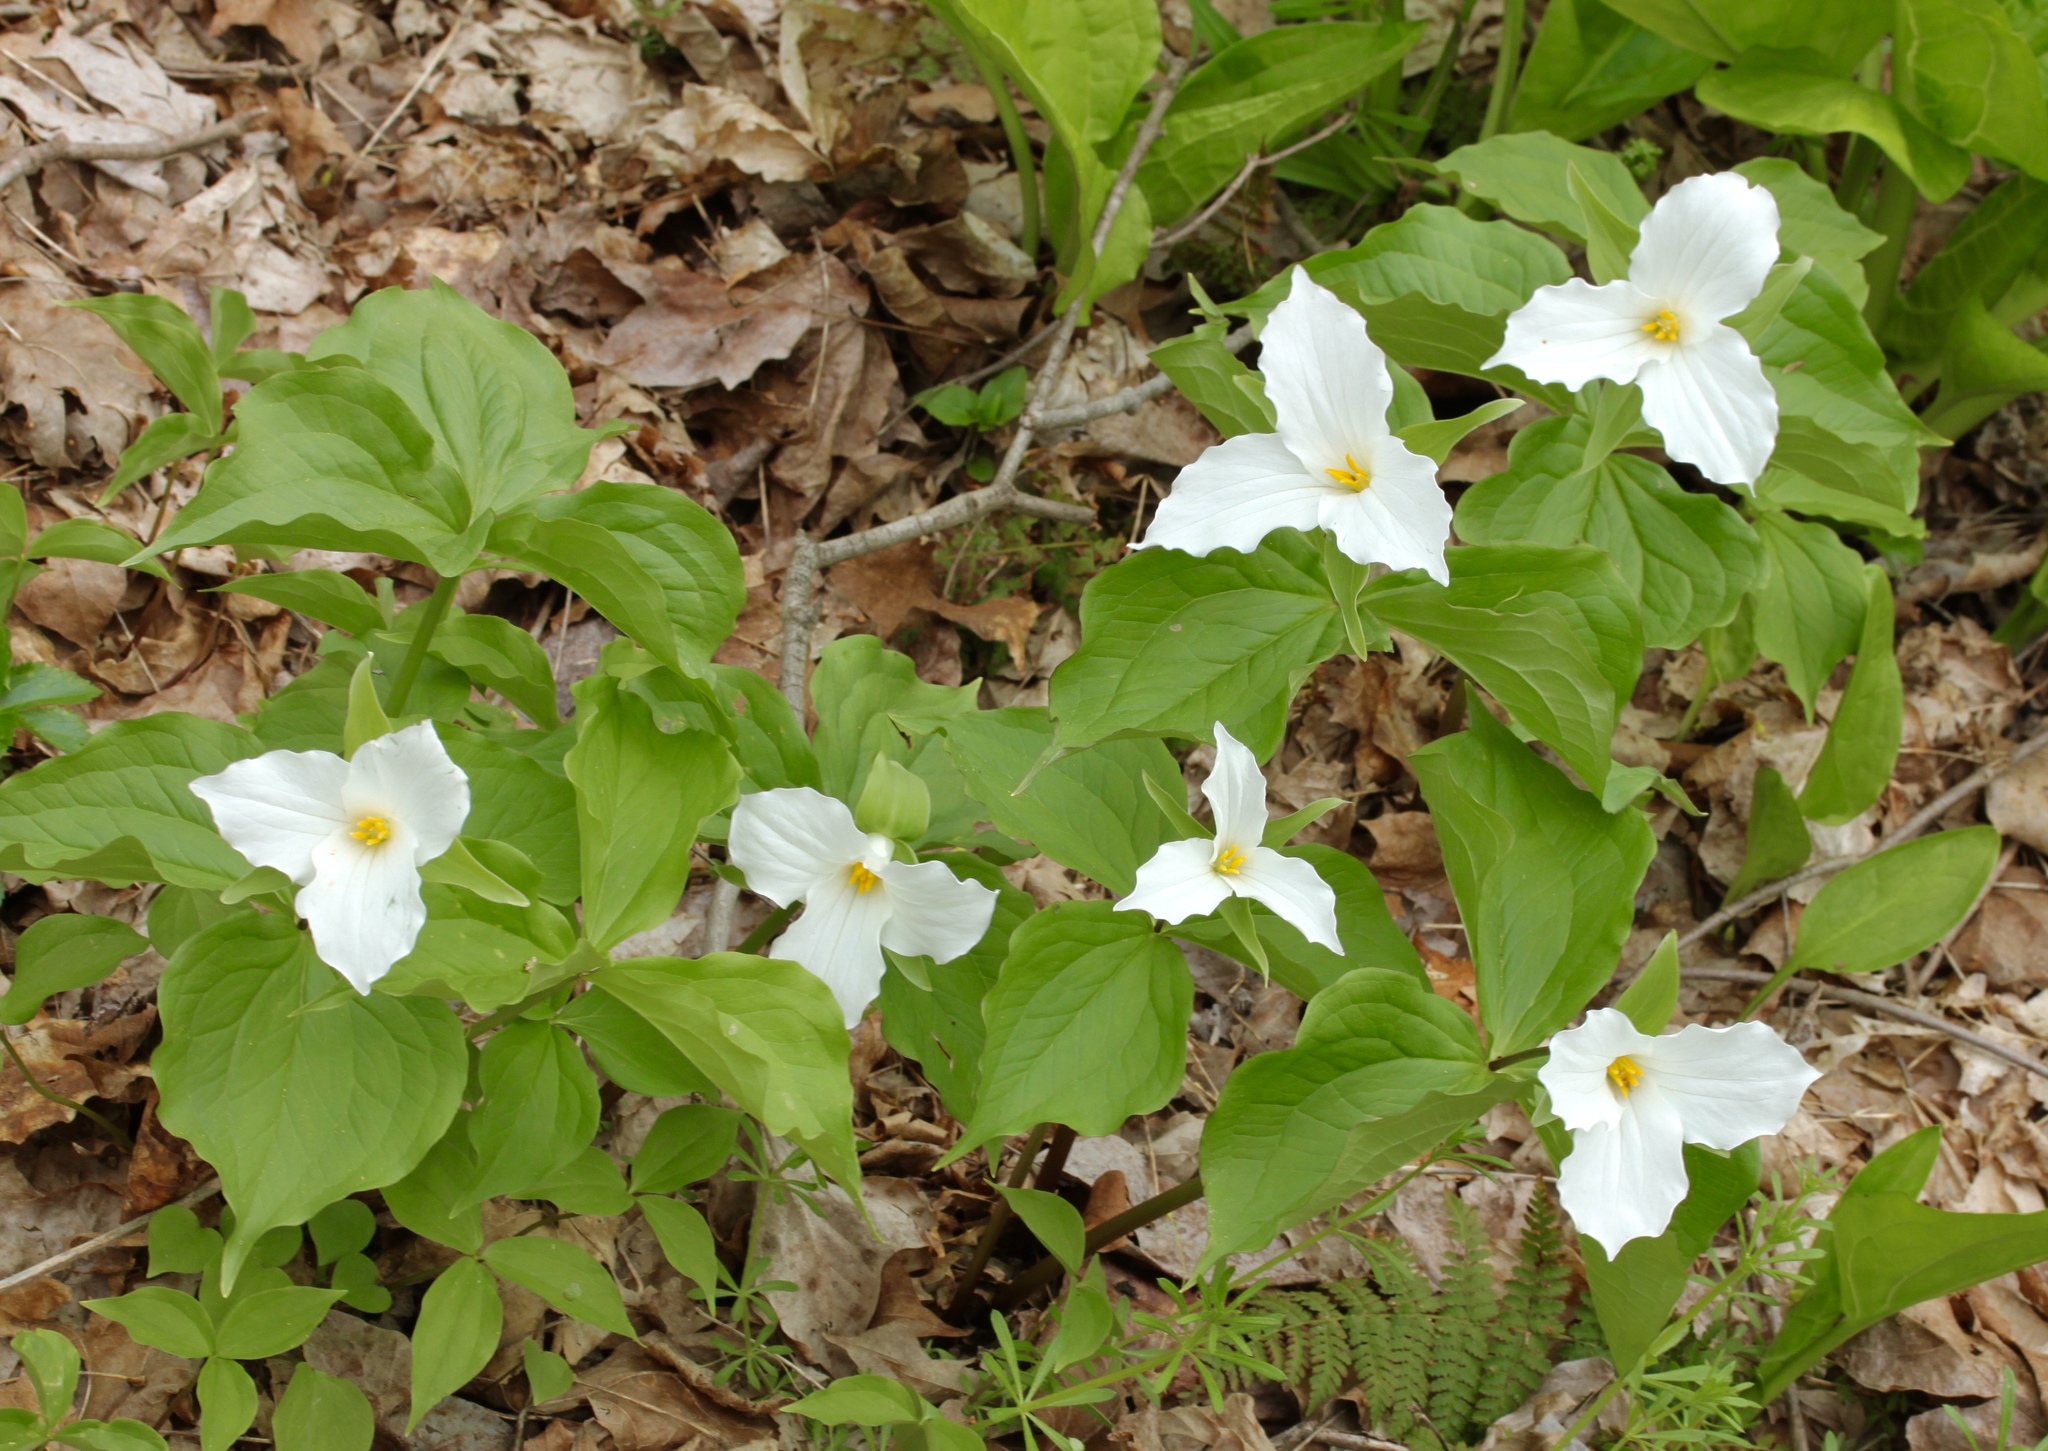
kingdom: Plantae
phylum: Tracheophyta
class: Liliopsida
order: Liliales
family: Melanthiaceae
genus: Trillium
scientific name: Trillium grandiflorum
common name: Great white trillium
